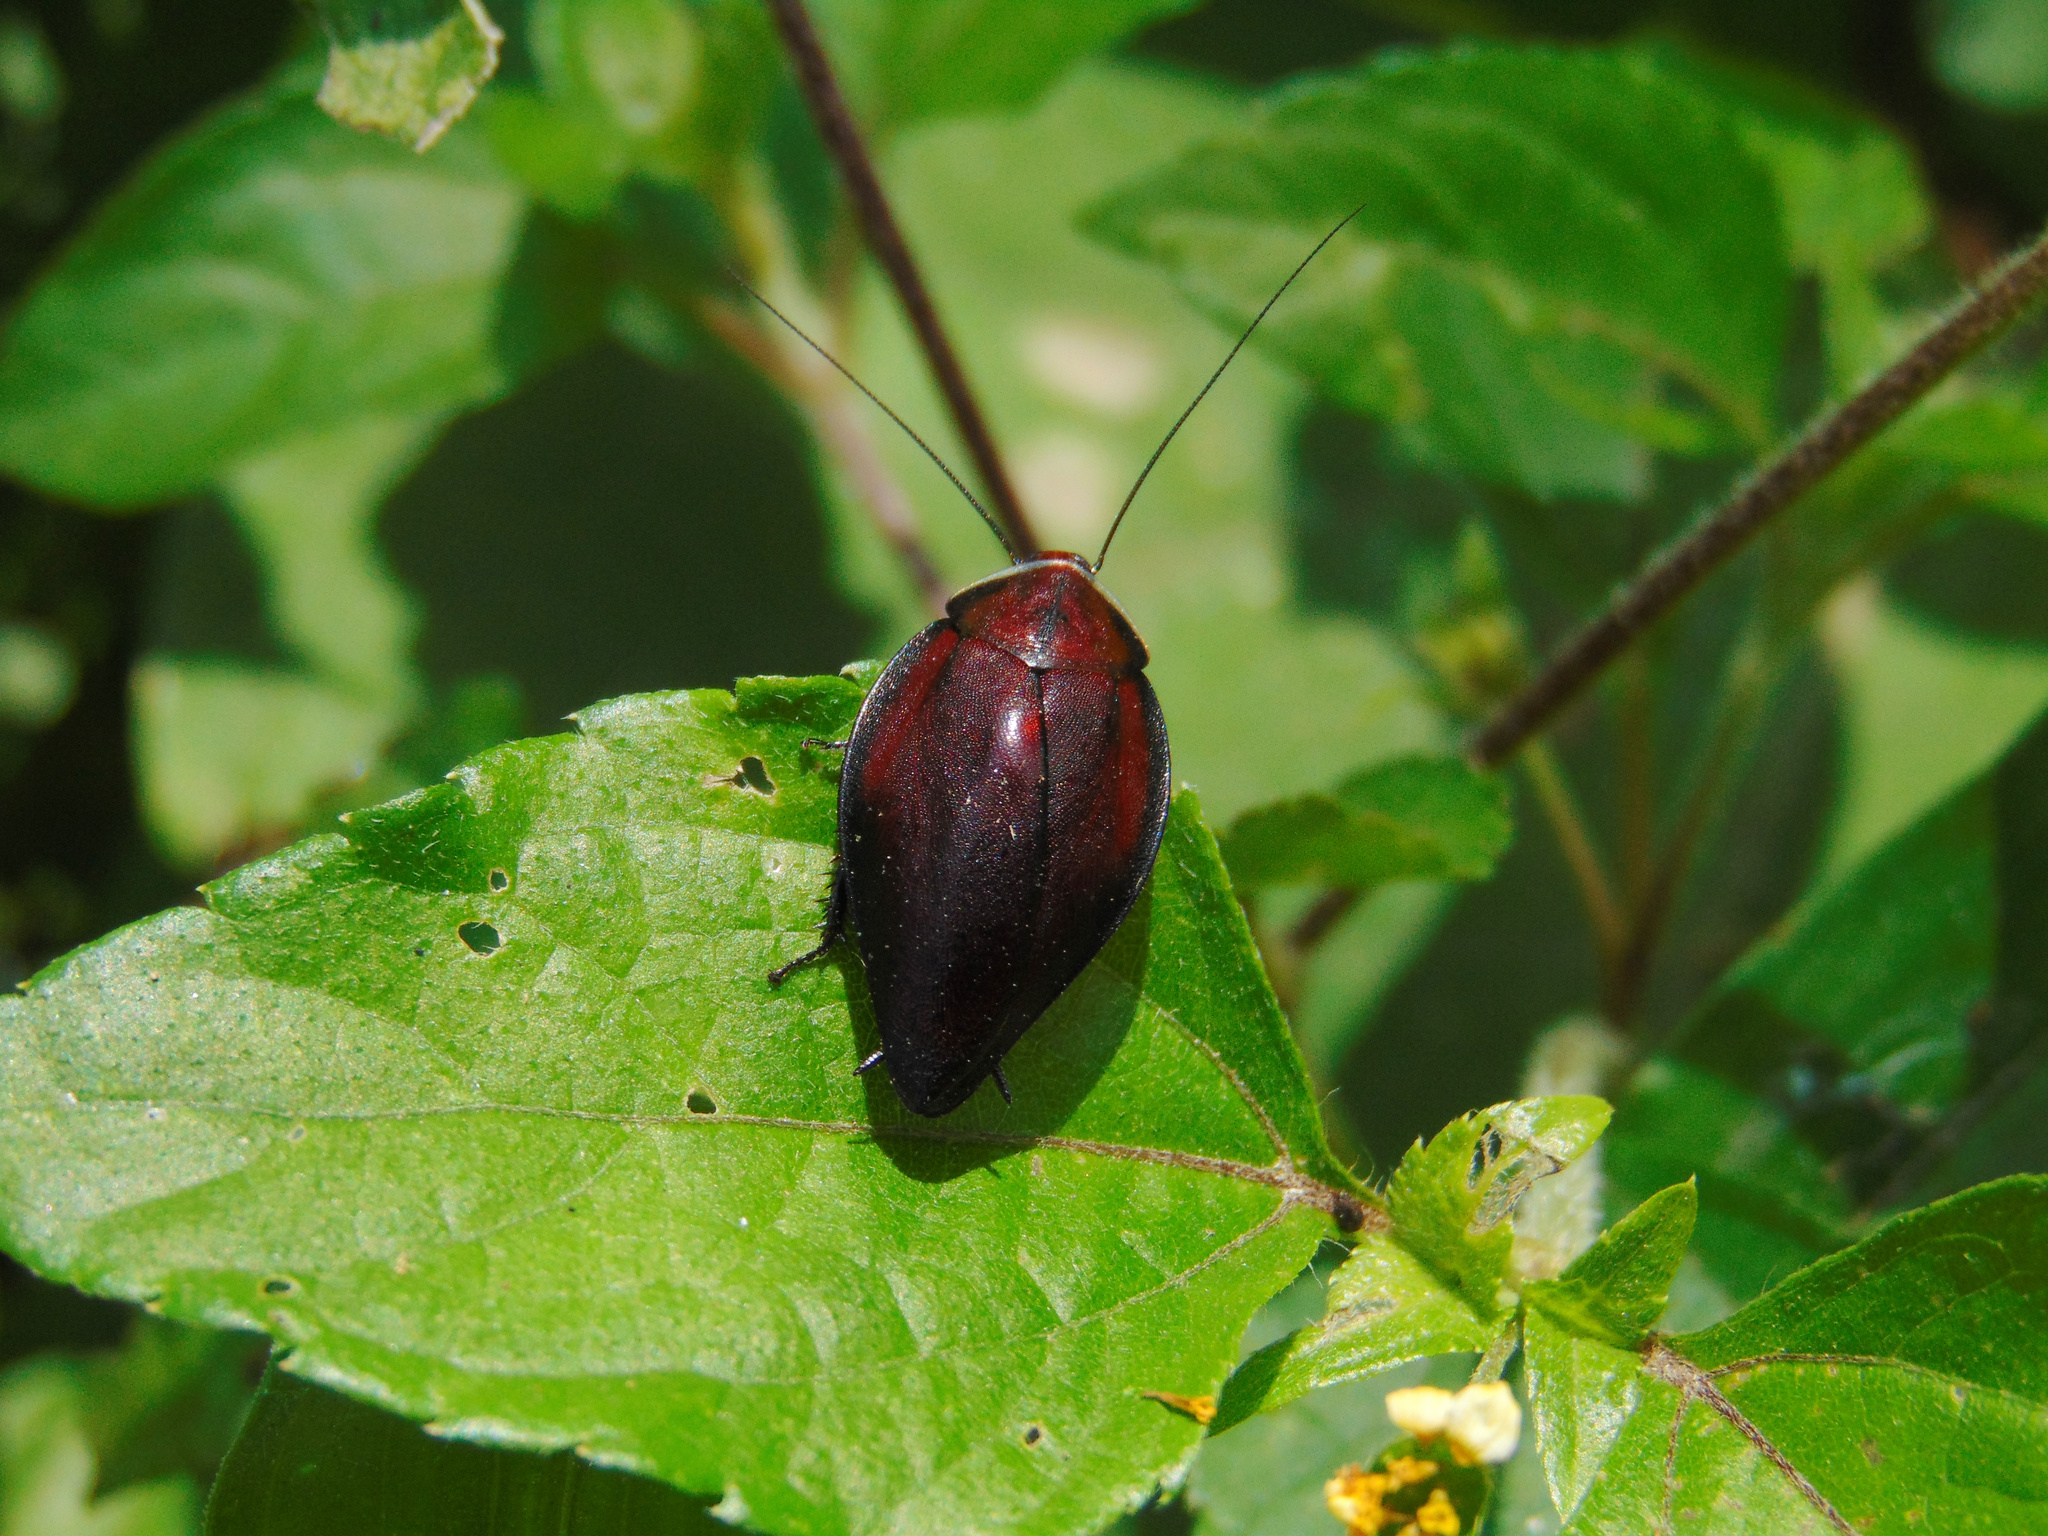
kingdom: Animalia
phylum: Arthropoda
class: Insecta
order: Blattodea
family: Blaberidae
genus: Phoraspis
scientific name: Phoraspis picta
